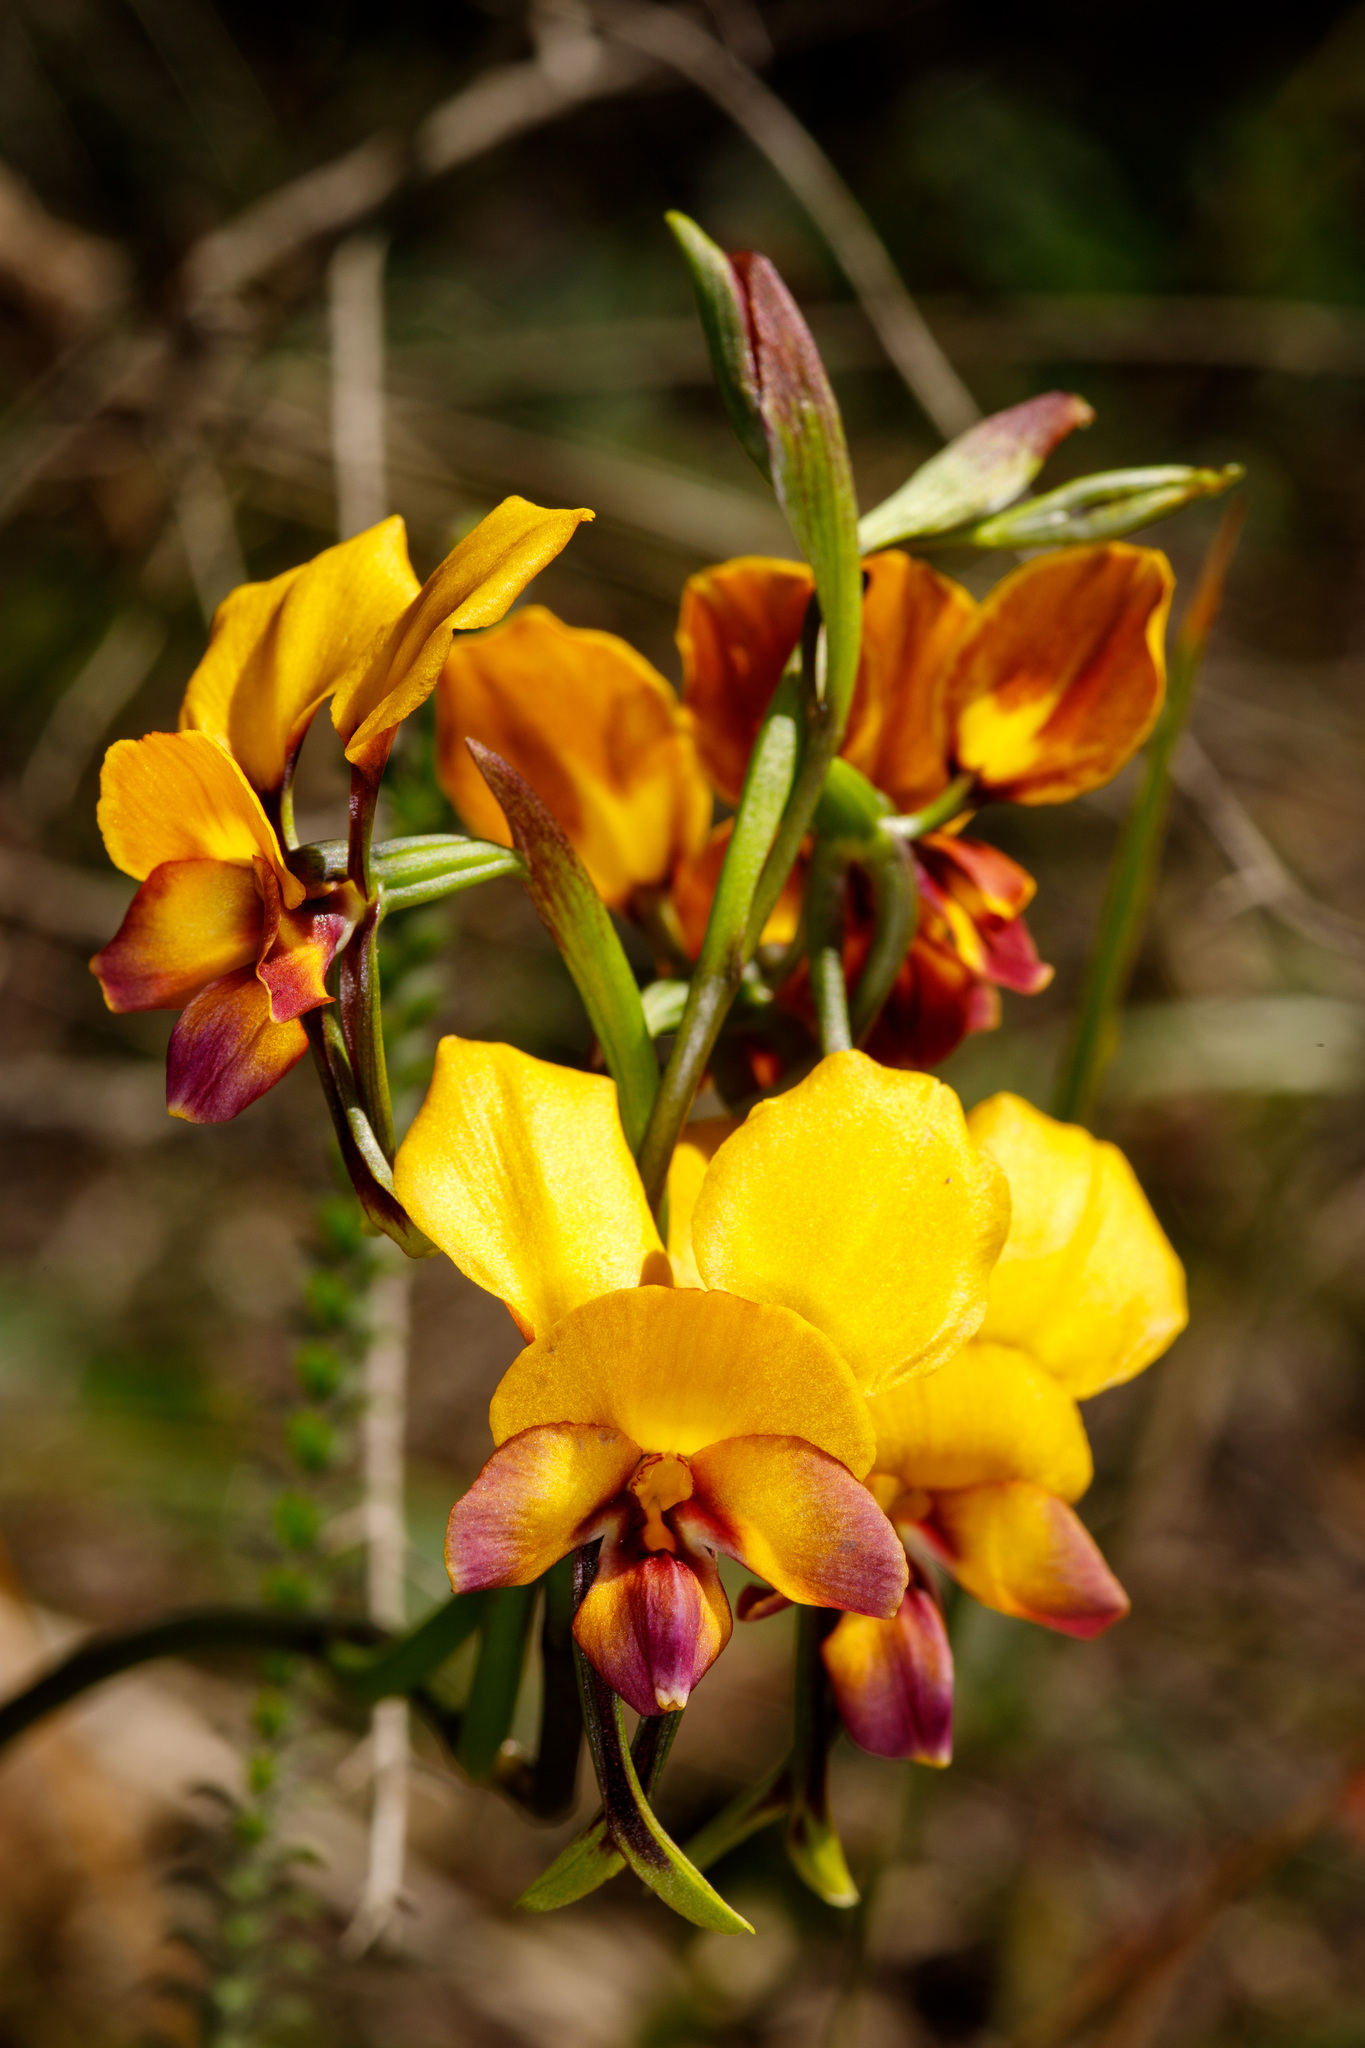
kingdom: Plantae
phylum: Tracheophyta
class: Liliopsida
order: Asparagales
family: Orchidaceae
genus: Diuris
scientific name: Diuris magnifica
